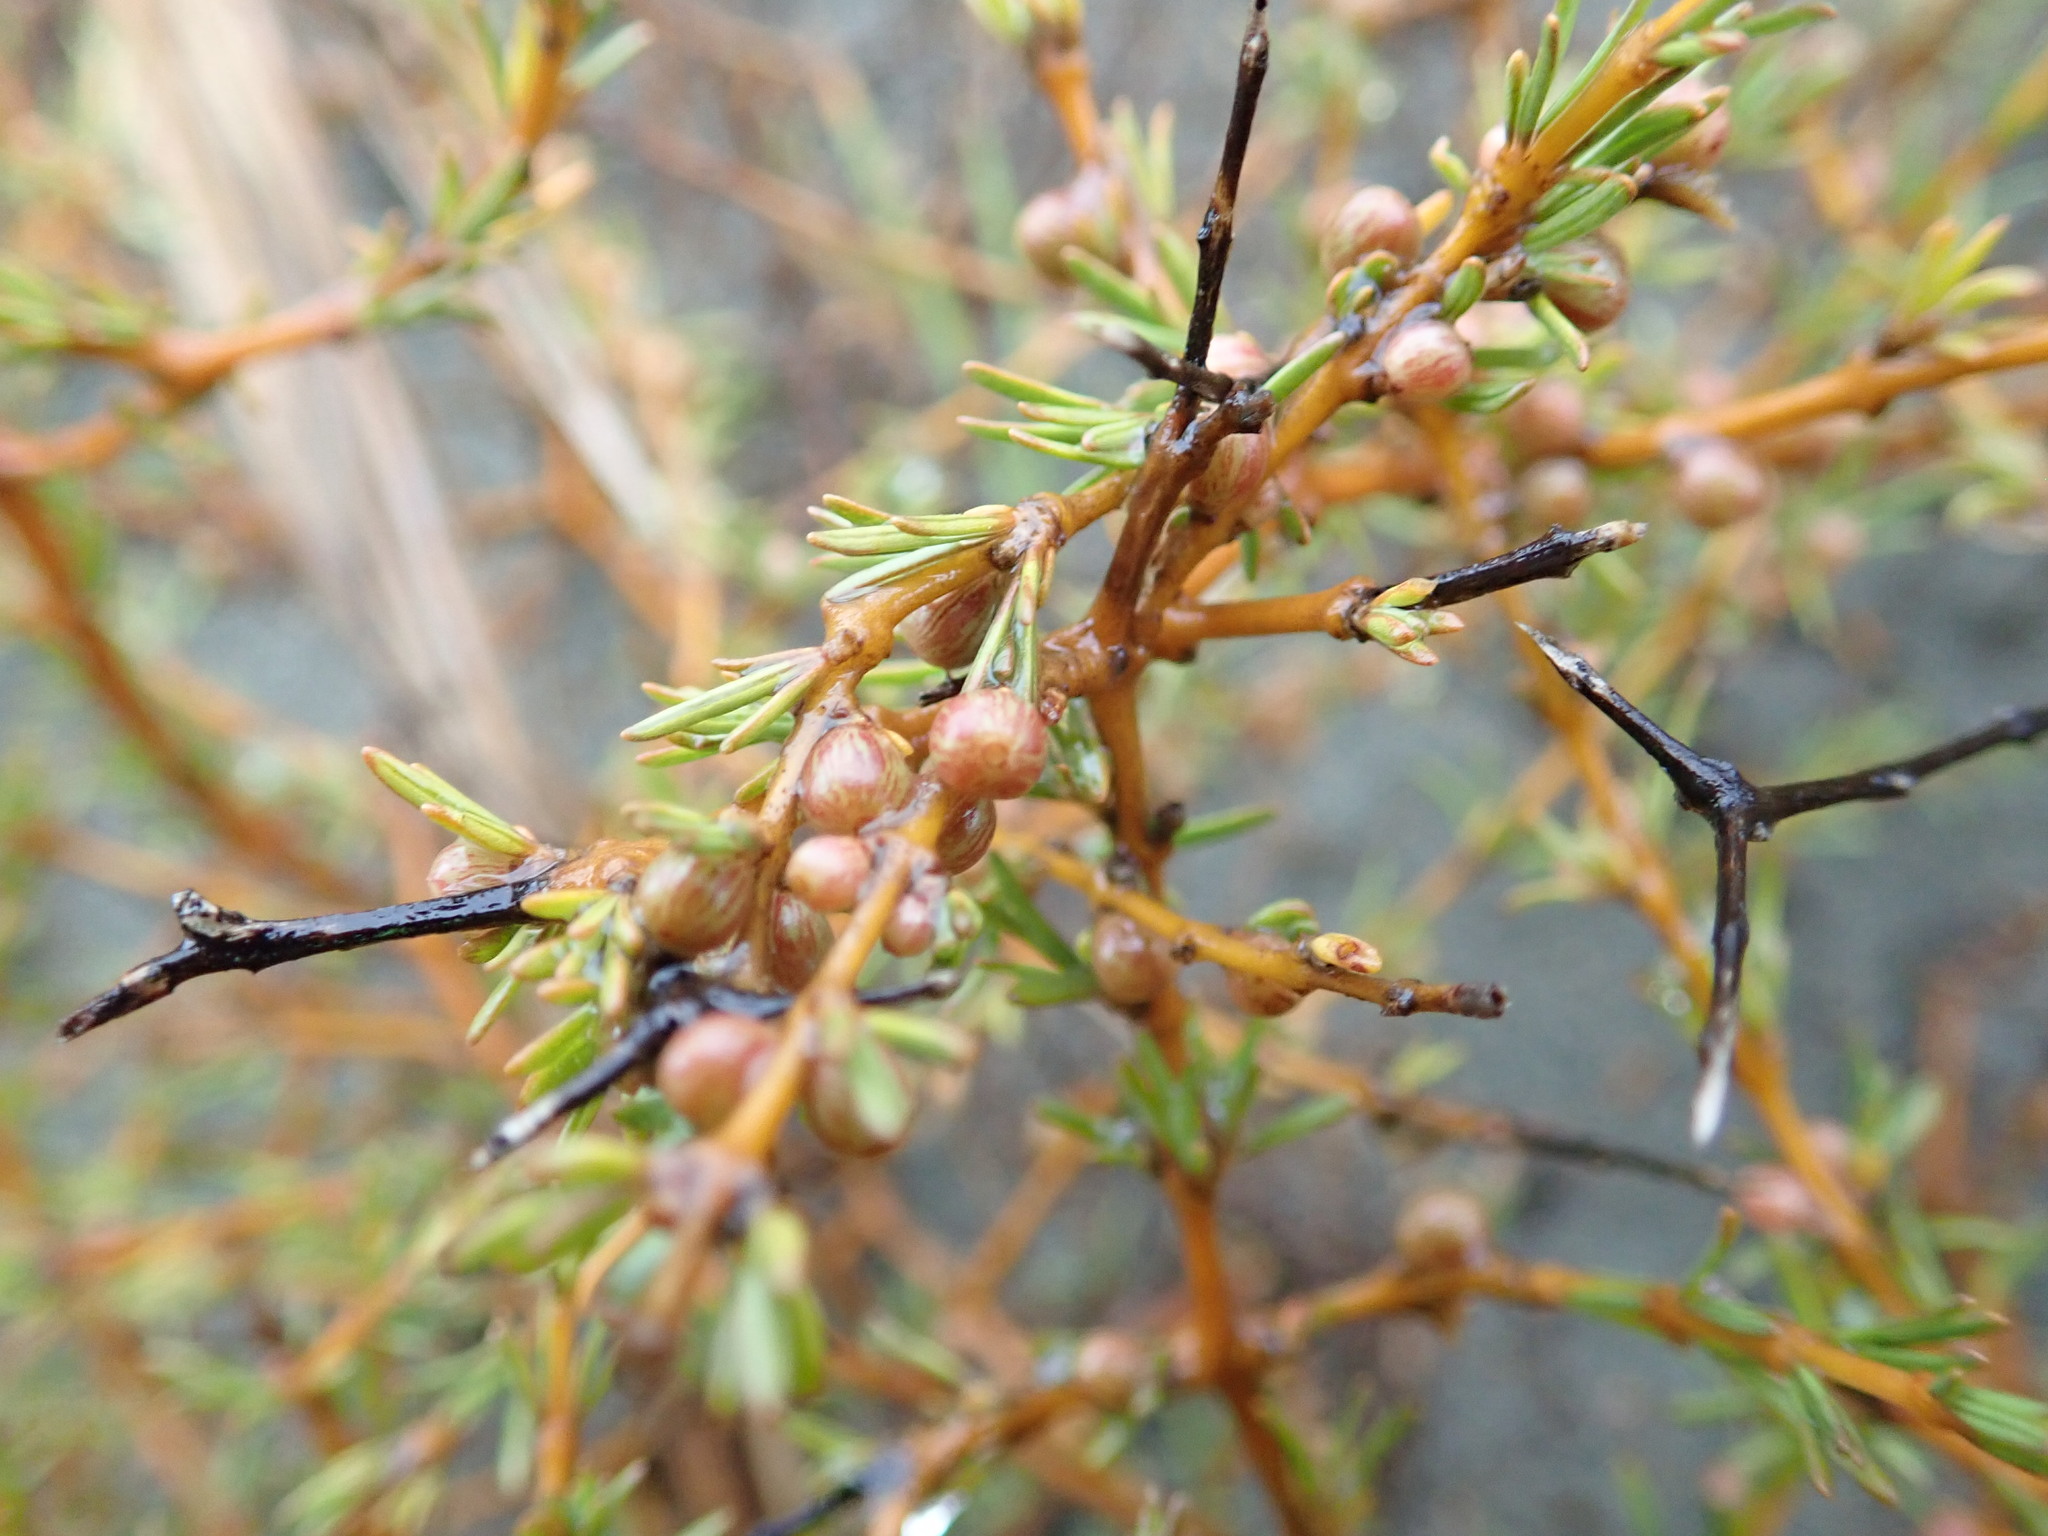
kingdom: Plantae
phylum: Tracheophyta
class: Magnoliopsida
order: Gentianales
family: Rubiaceae
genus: Coprosma
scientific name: Coprosma acerosa
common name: Sand coprosma
